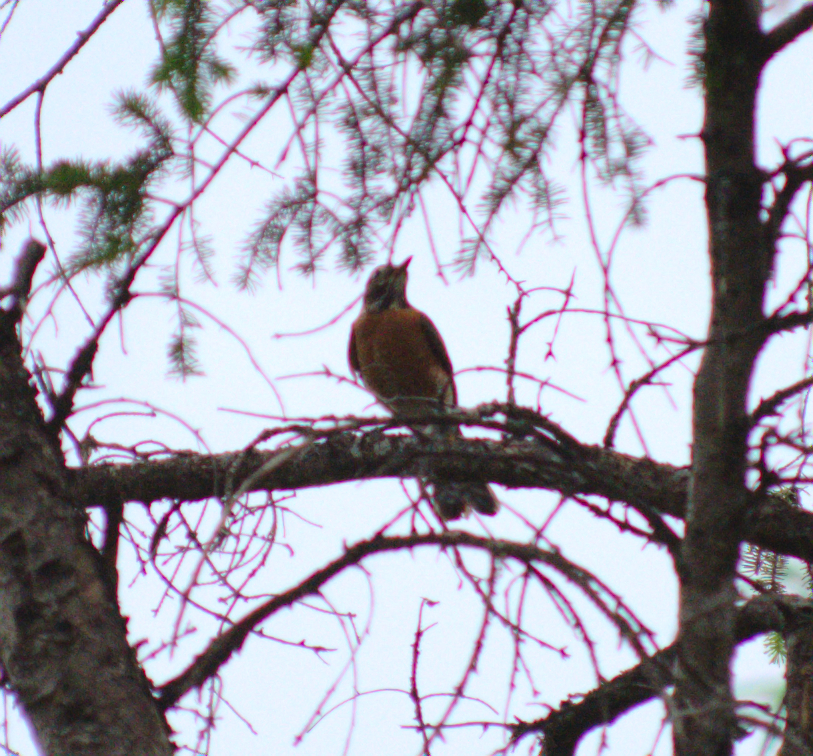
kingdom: Animalia
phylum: Chordata
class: Aves
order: Passeriformes
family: Turdidae
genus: Turdus
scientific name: Turdus migratorius
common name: American robin
